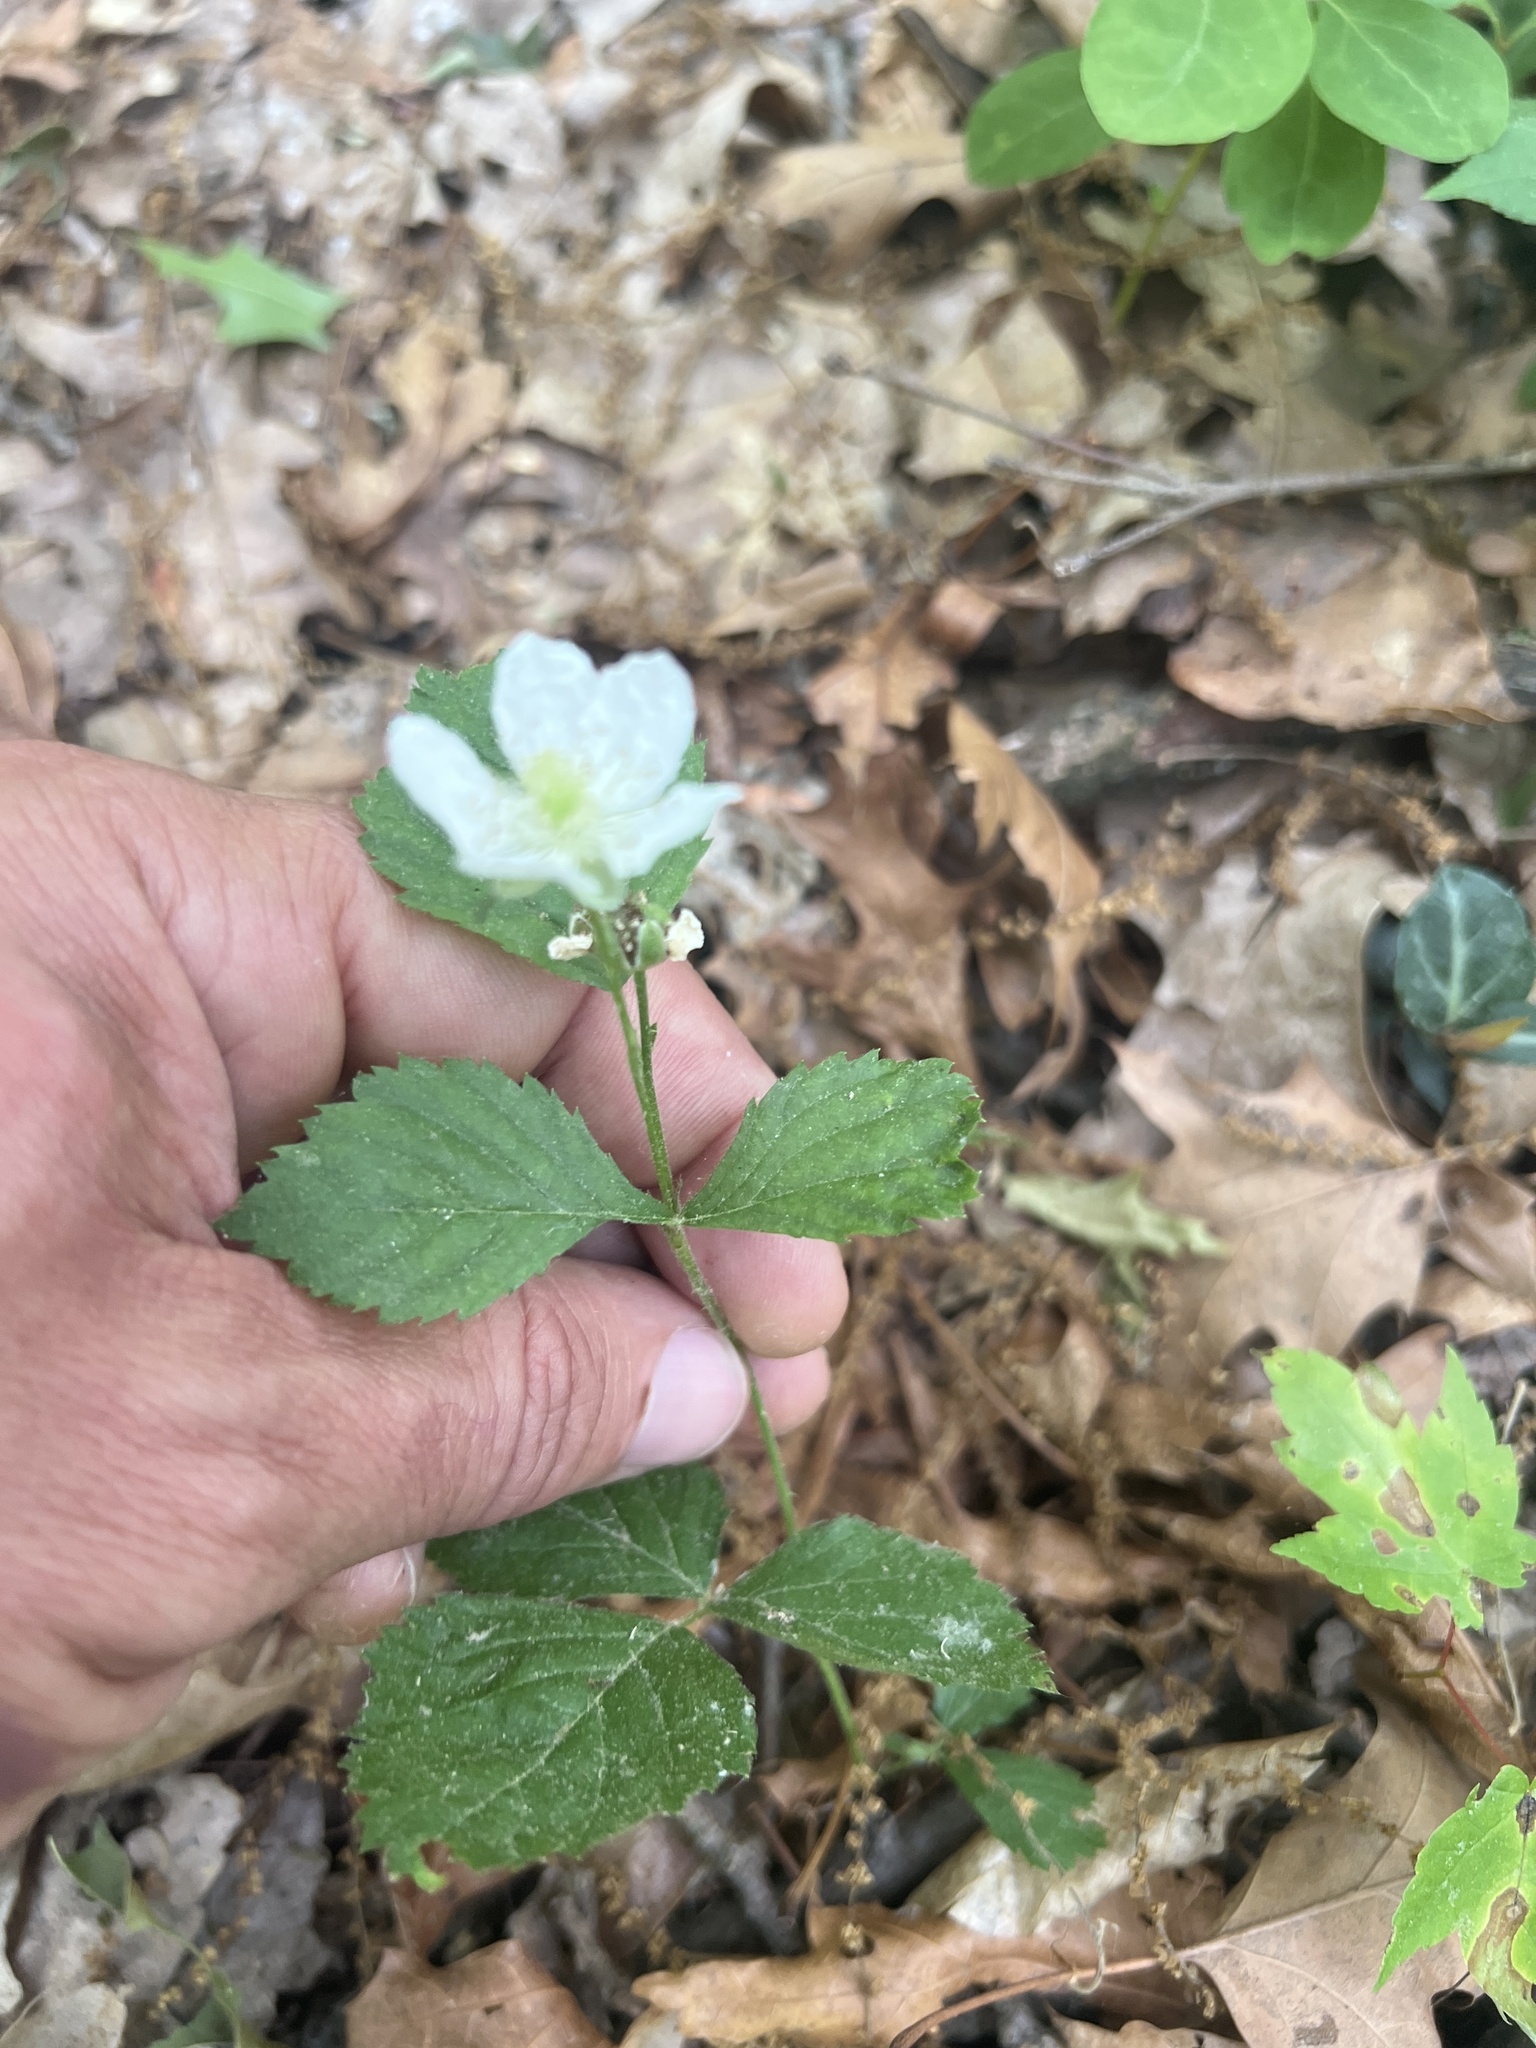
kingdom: Plantae
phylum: Tracheophyta
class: Magnoliopsida
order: Rosales
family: Rosaceae
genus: Rubus
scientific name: Rubus flagellaris
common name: American dewberry
